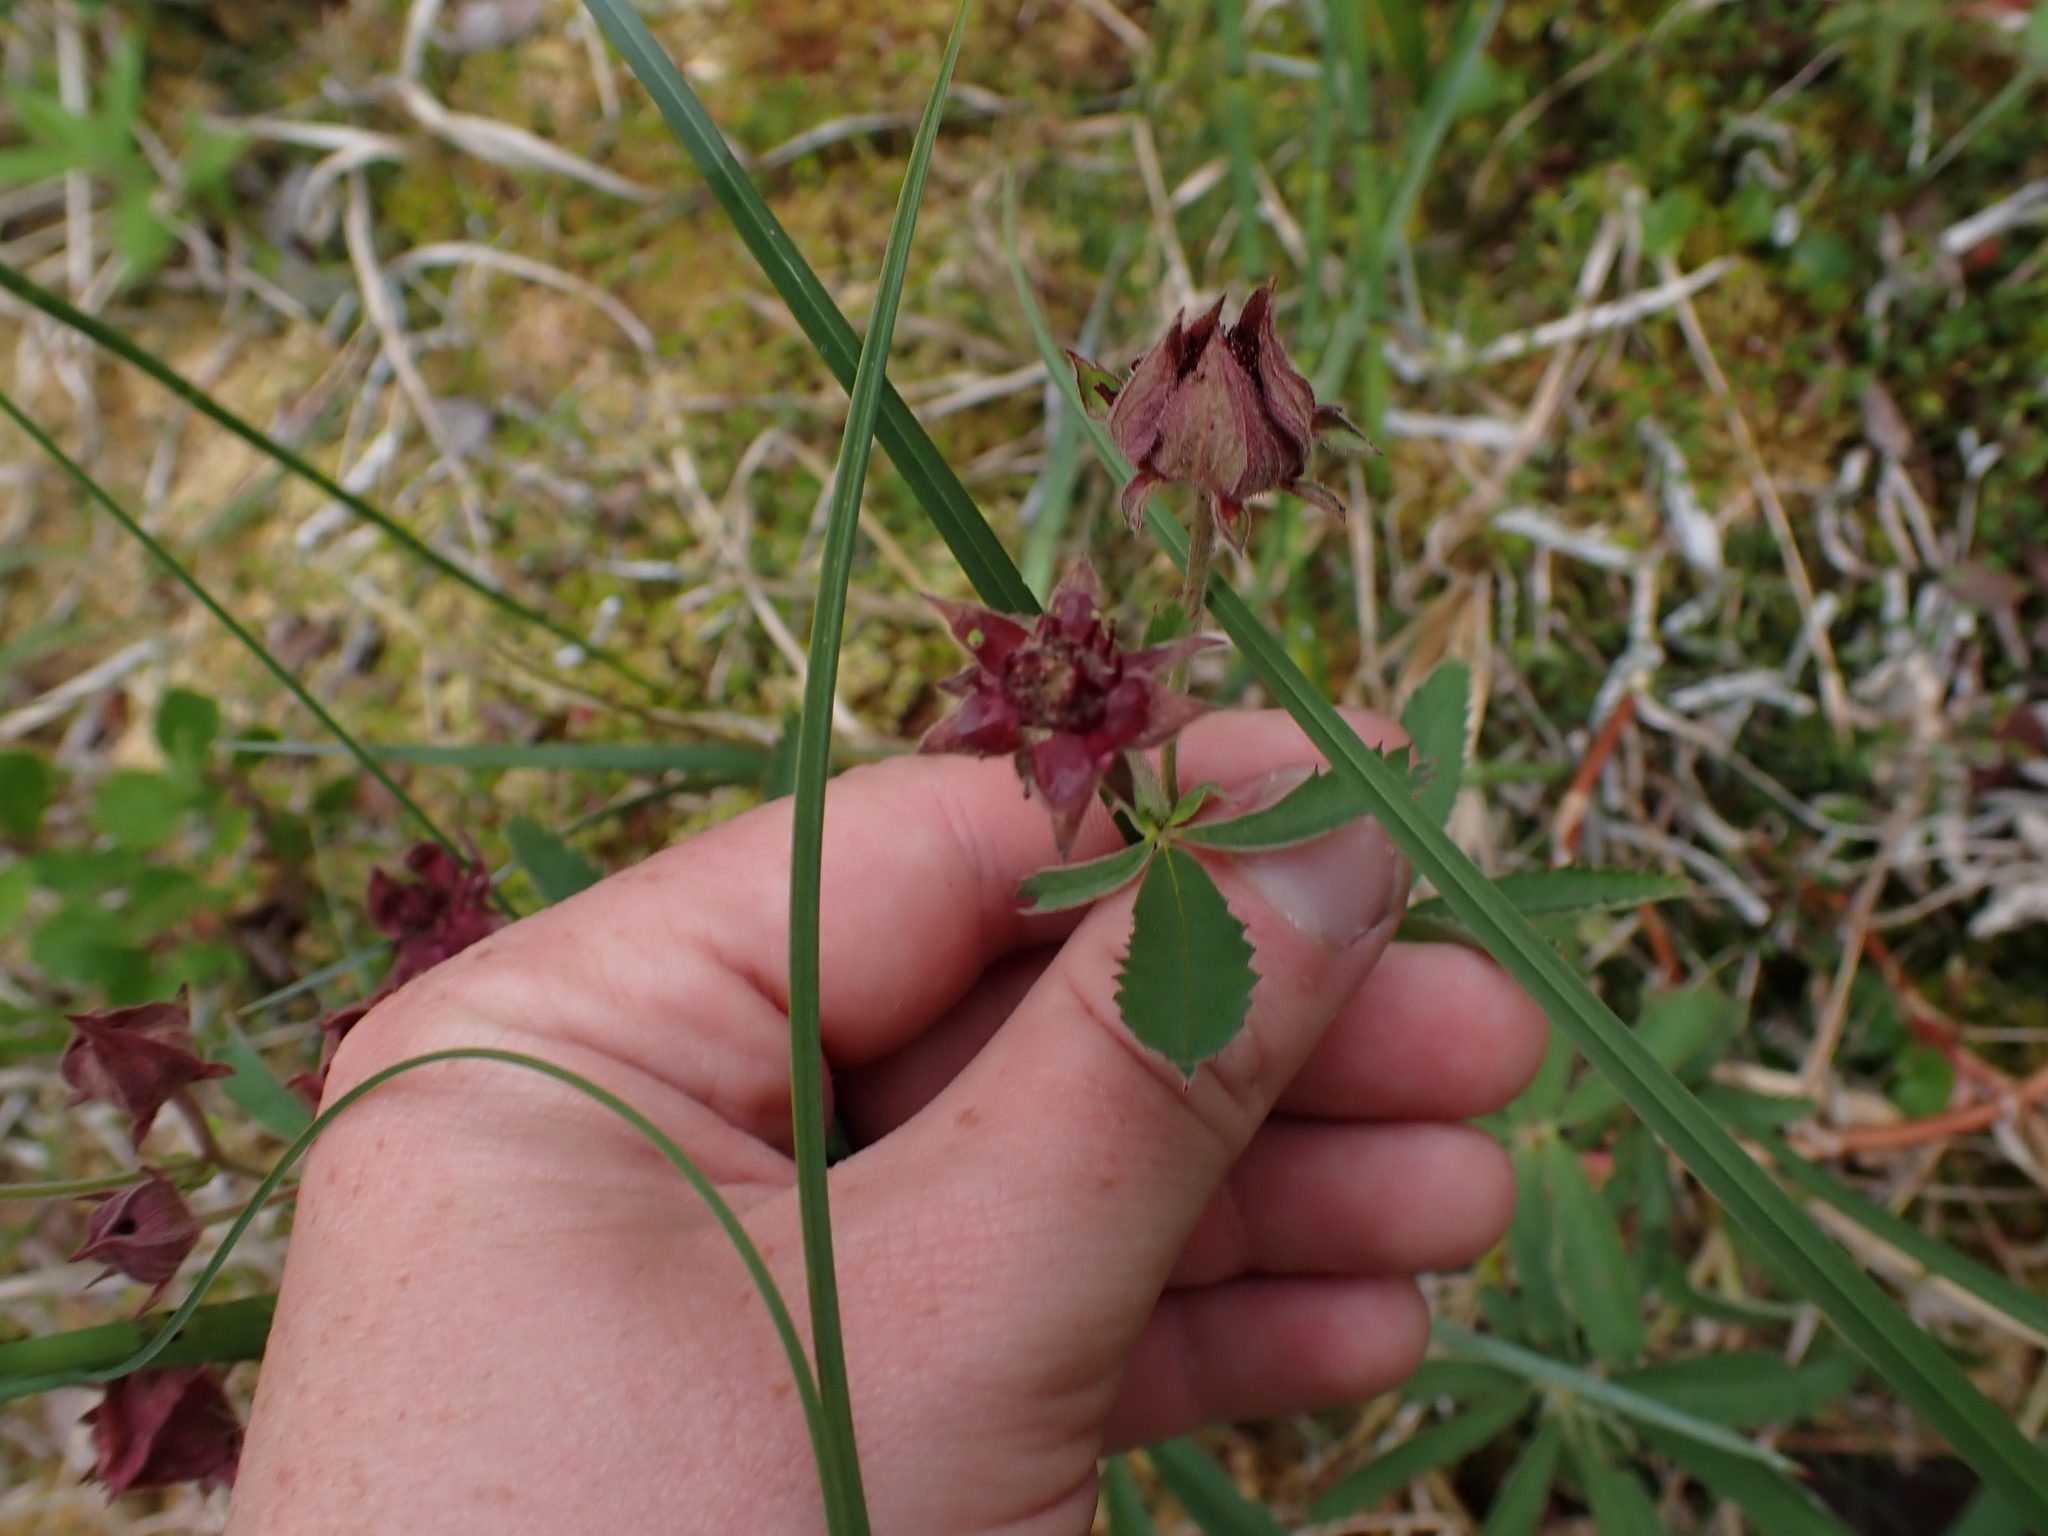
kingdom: Plantae
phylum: Tracheophyta
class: Magnoliopsida
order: Rosales
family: Rosaceae
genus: Comarum
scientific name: Comarum palustre
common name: Marsh cinquefoil
